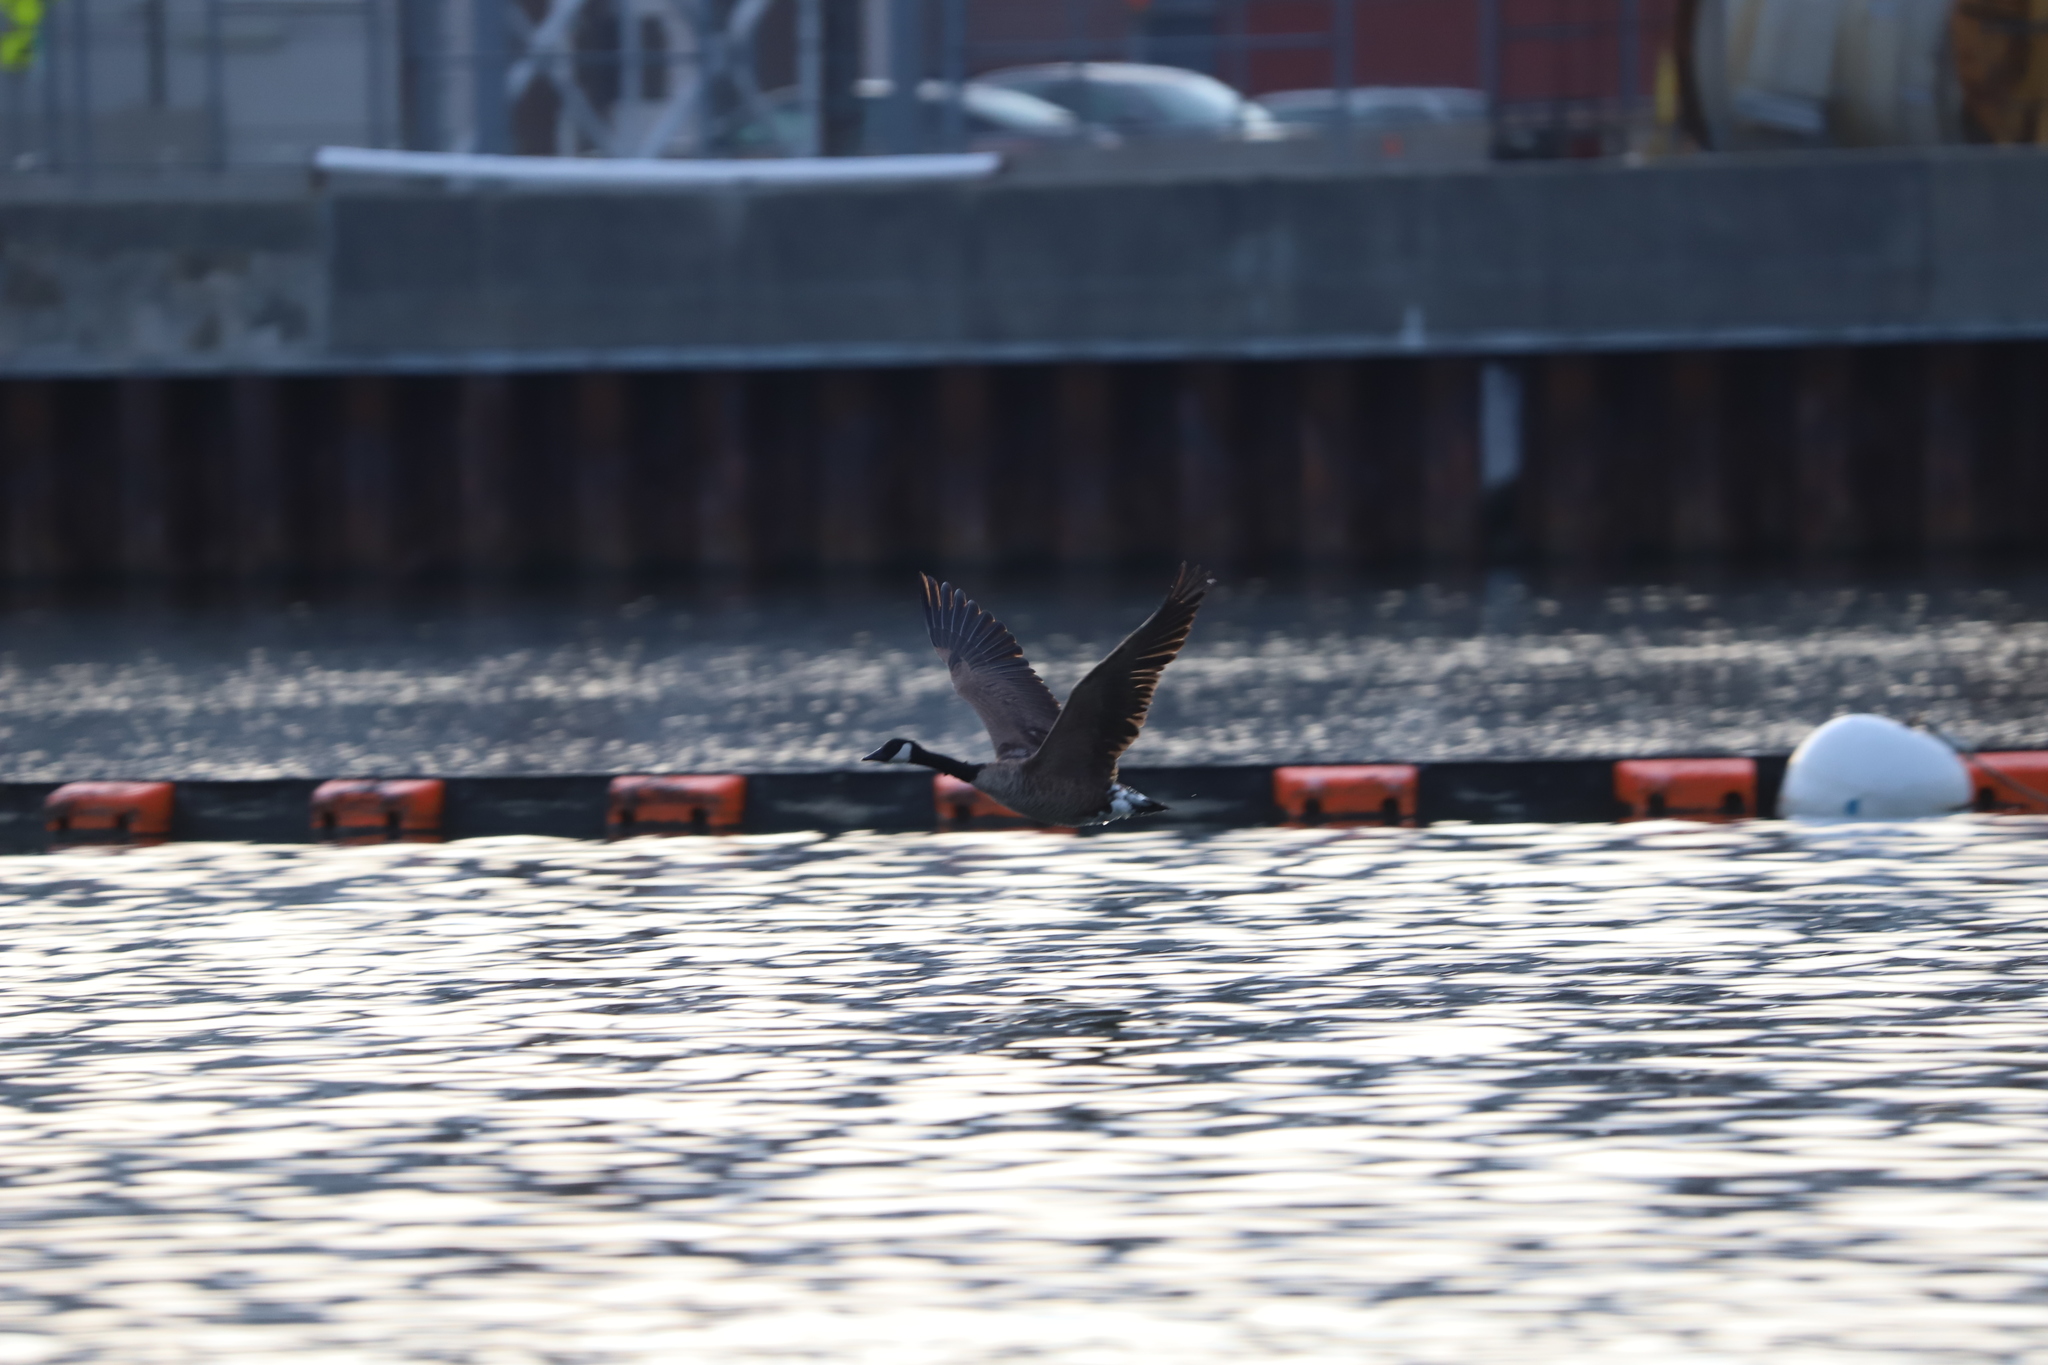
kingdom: Animalia
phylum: Chordata
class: Aves
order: Anseriformes
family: Anatidae
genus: Branta
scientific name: Branta canadensis
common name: Canada goose
